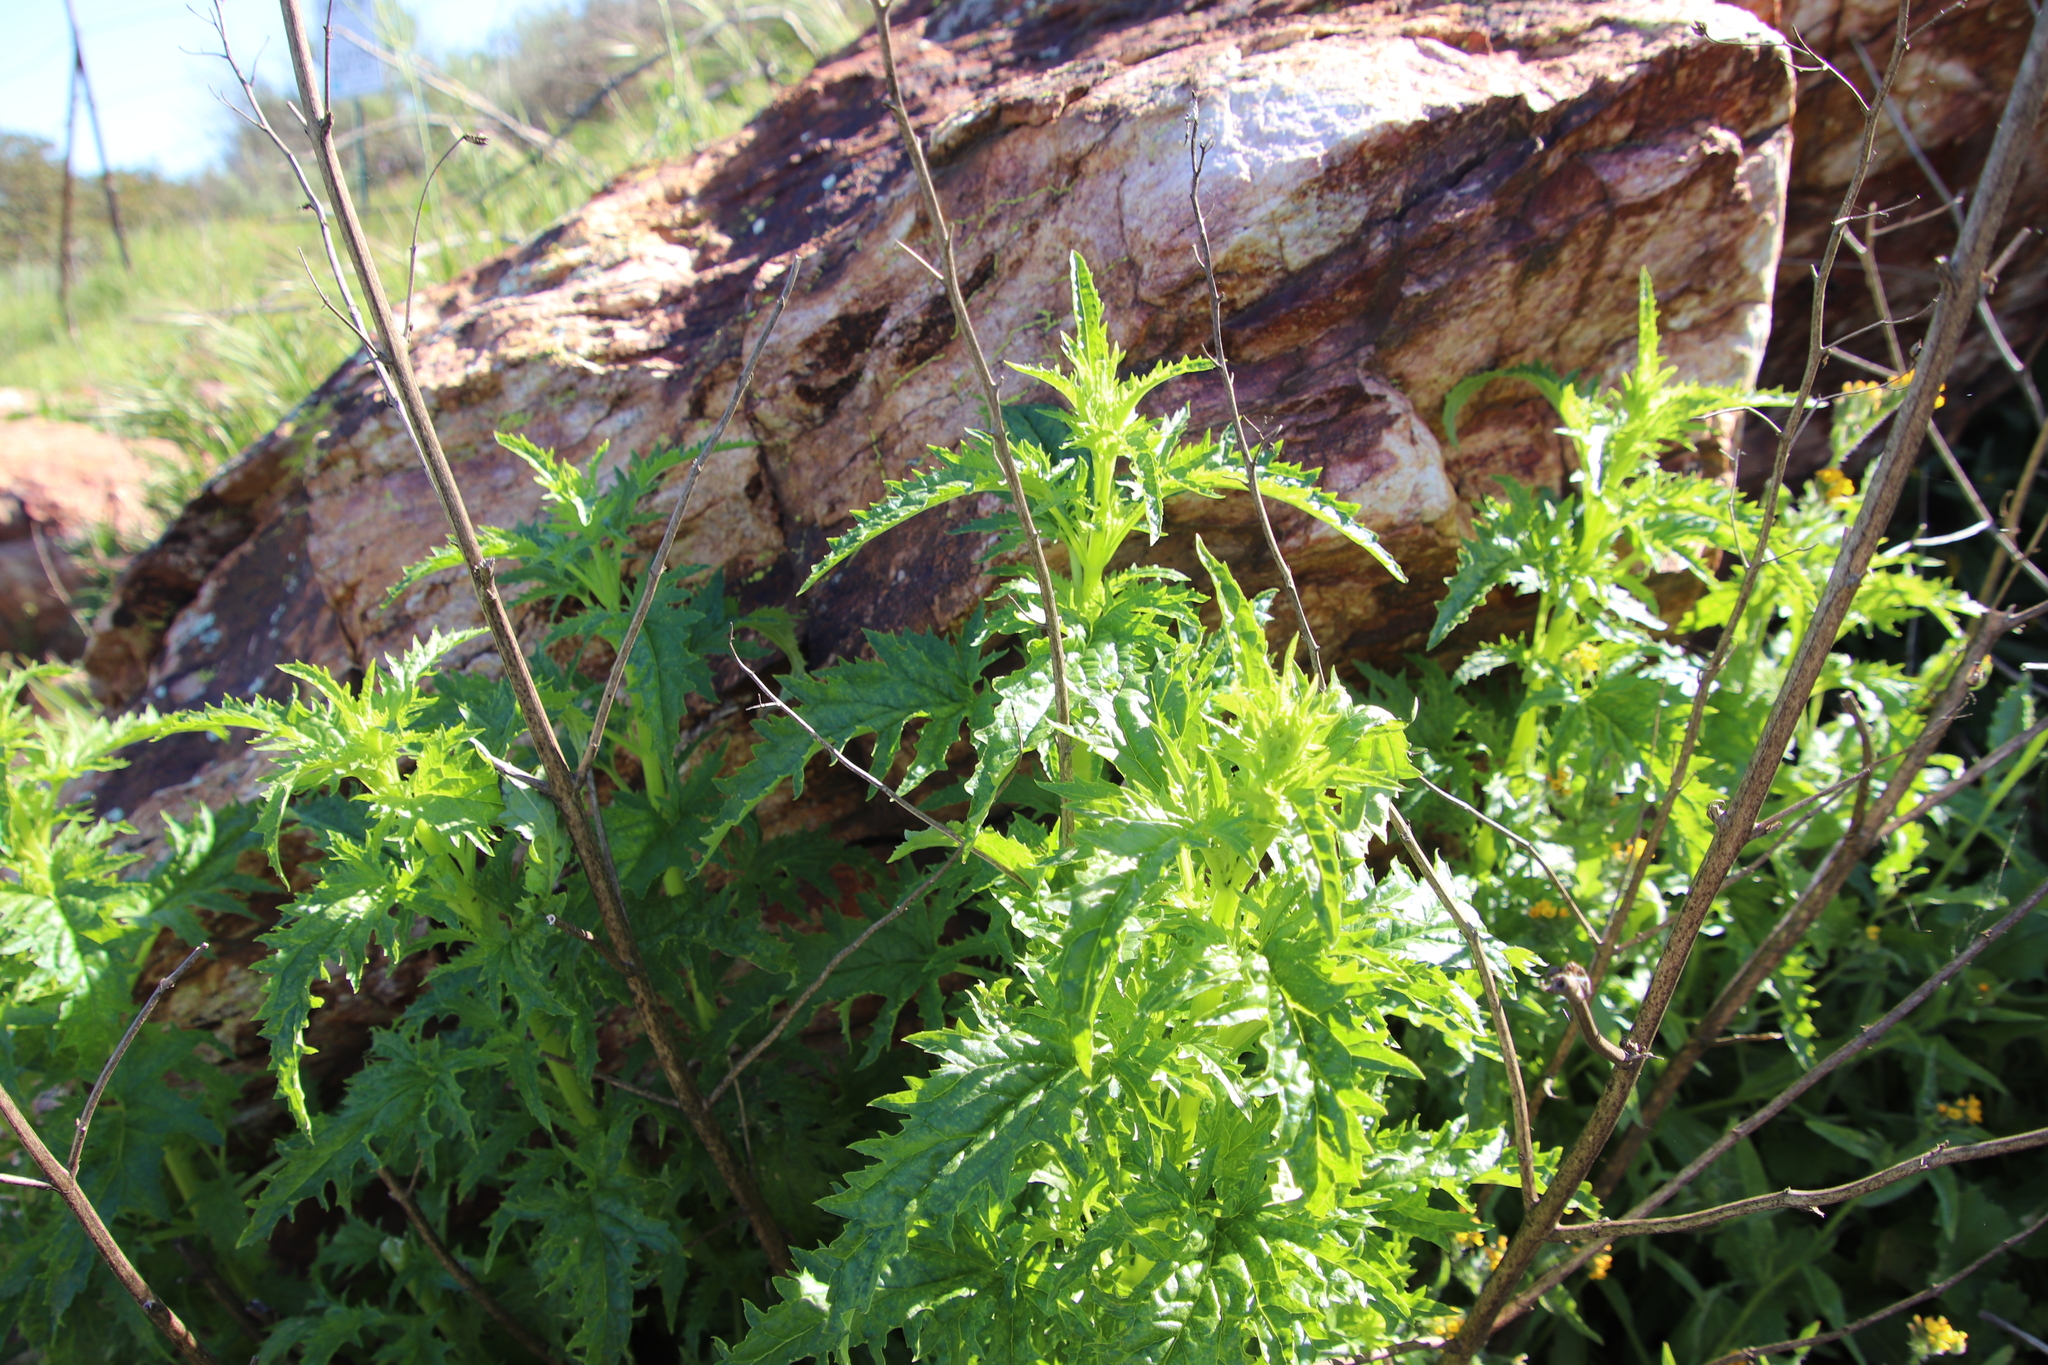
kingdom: Plantae
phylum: Tracheophyta
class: Magnoliopsida
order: Lamiales
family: Scrophulariaceae
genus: Scrophularia
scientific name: Scrophularia californica
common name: California figwort
